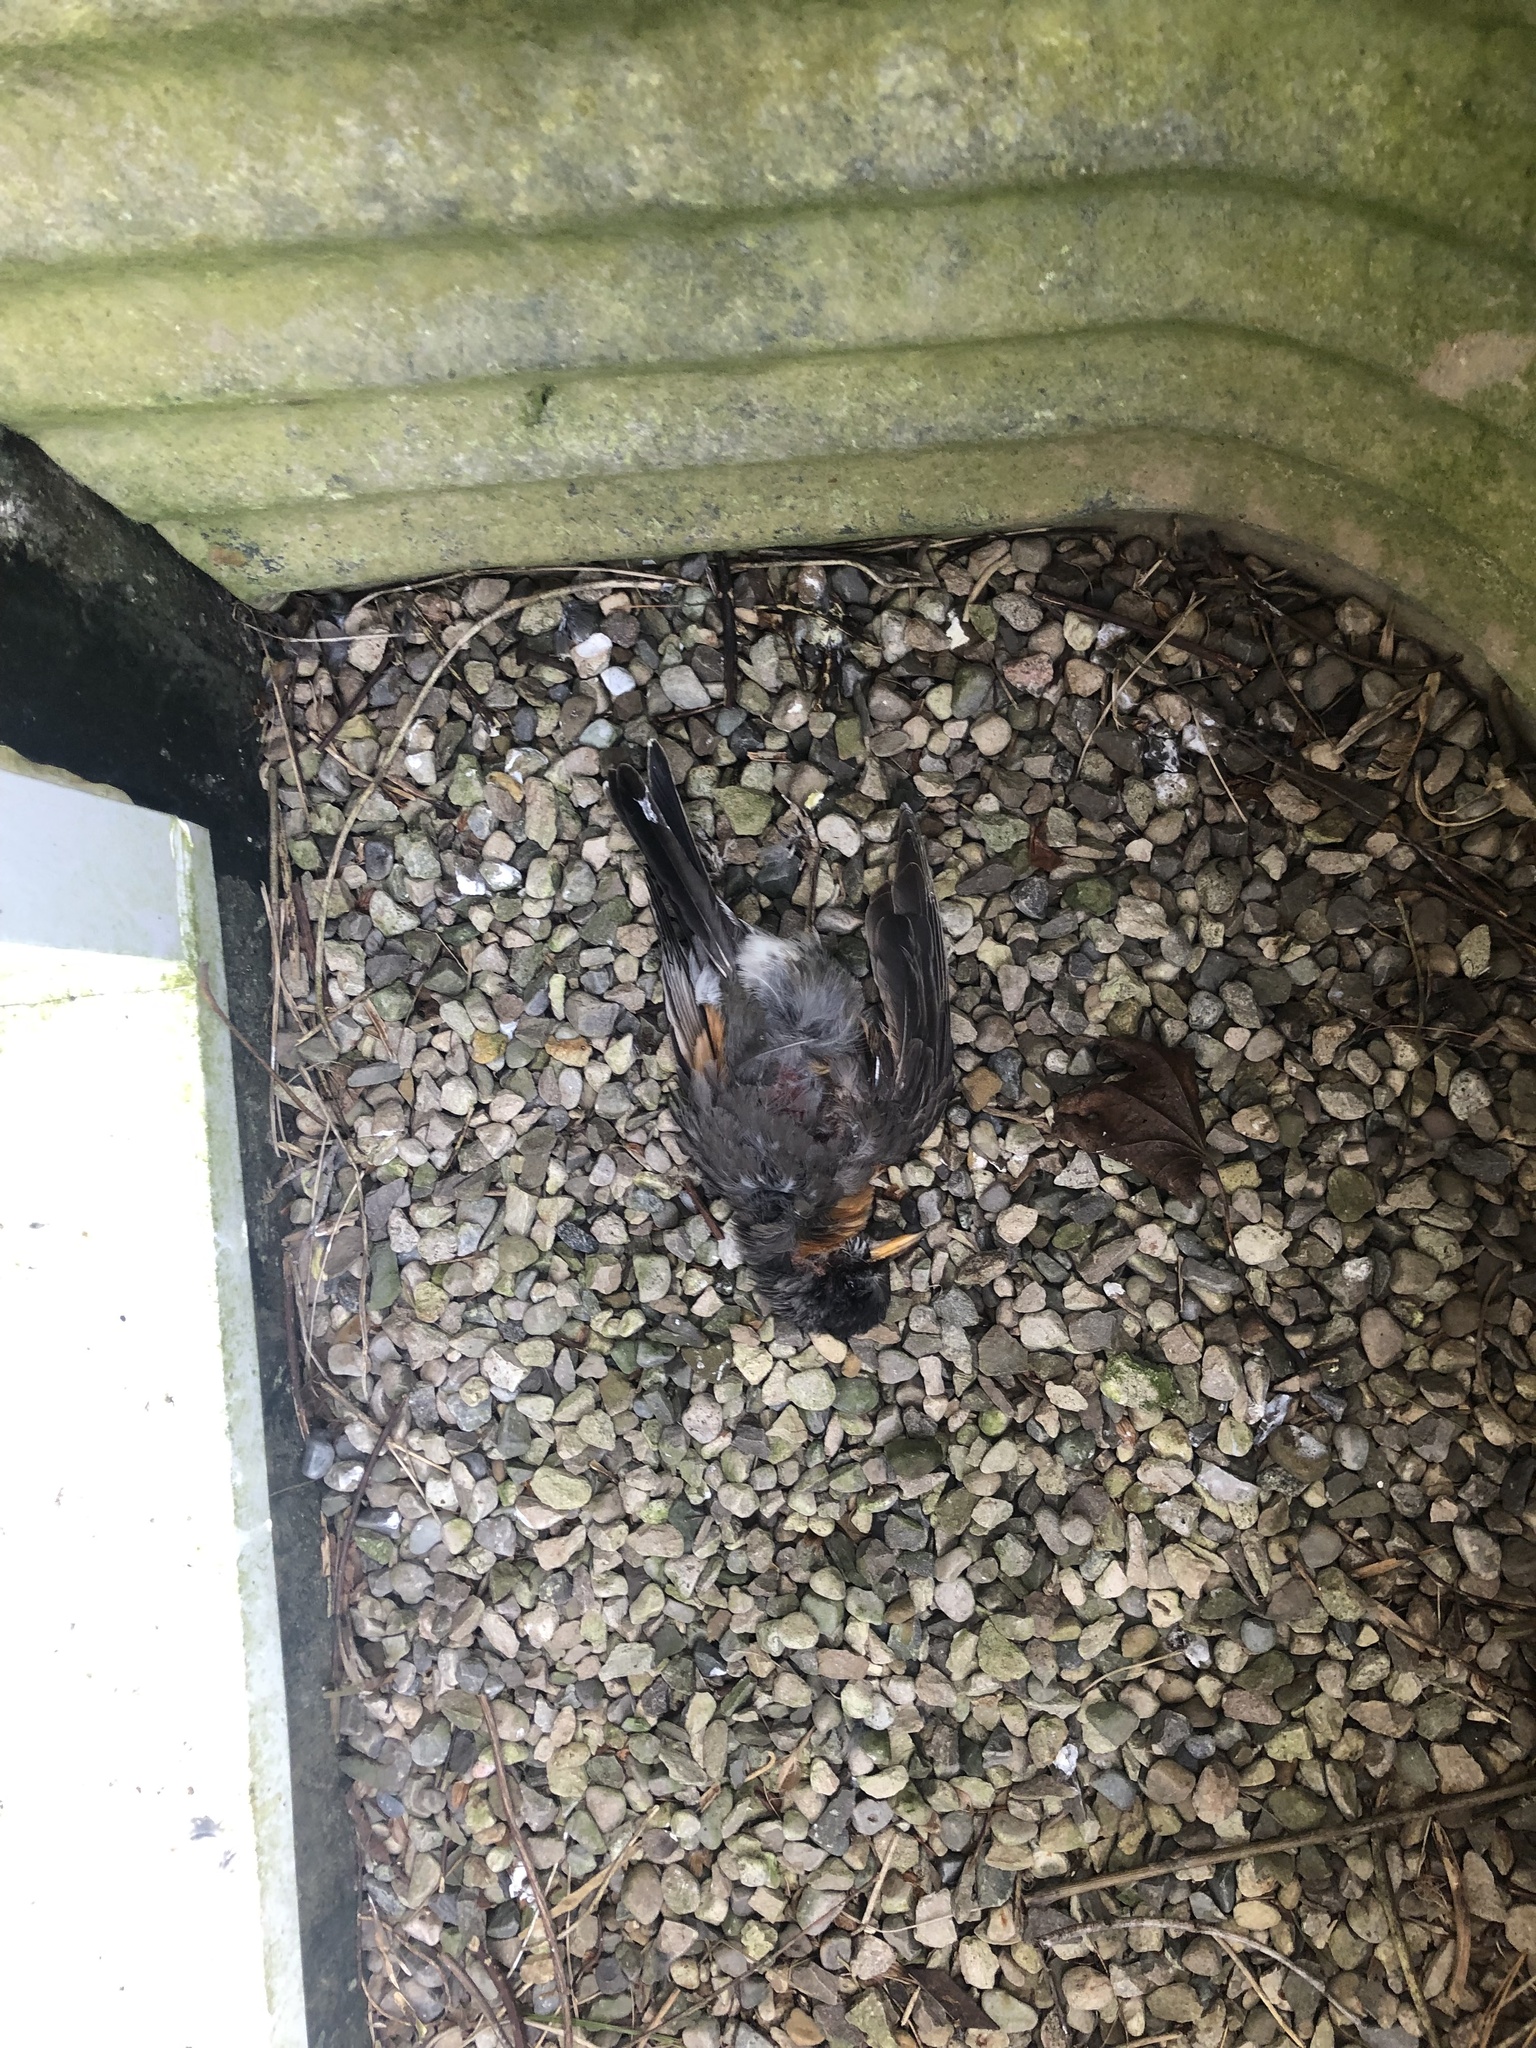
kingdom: Animalia
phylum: Chordata
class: Aves
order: Passeriformes
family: Turdidae
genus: Turdus
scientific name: Turdus migratorius
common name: American robin
